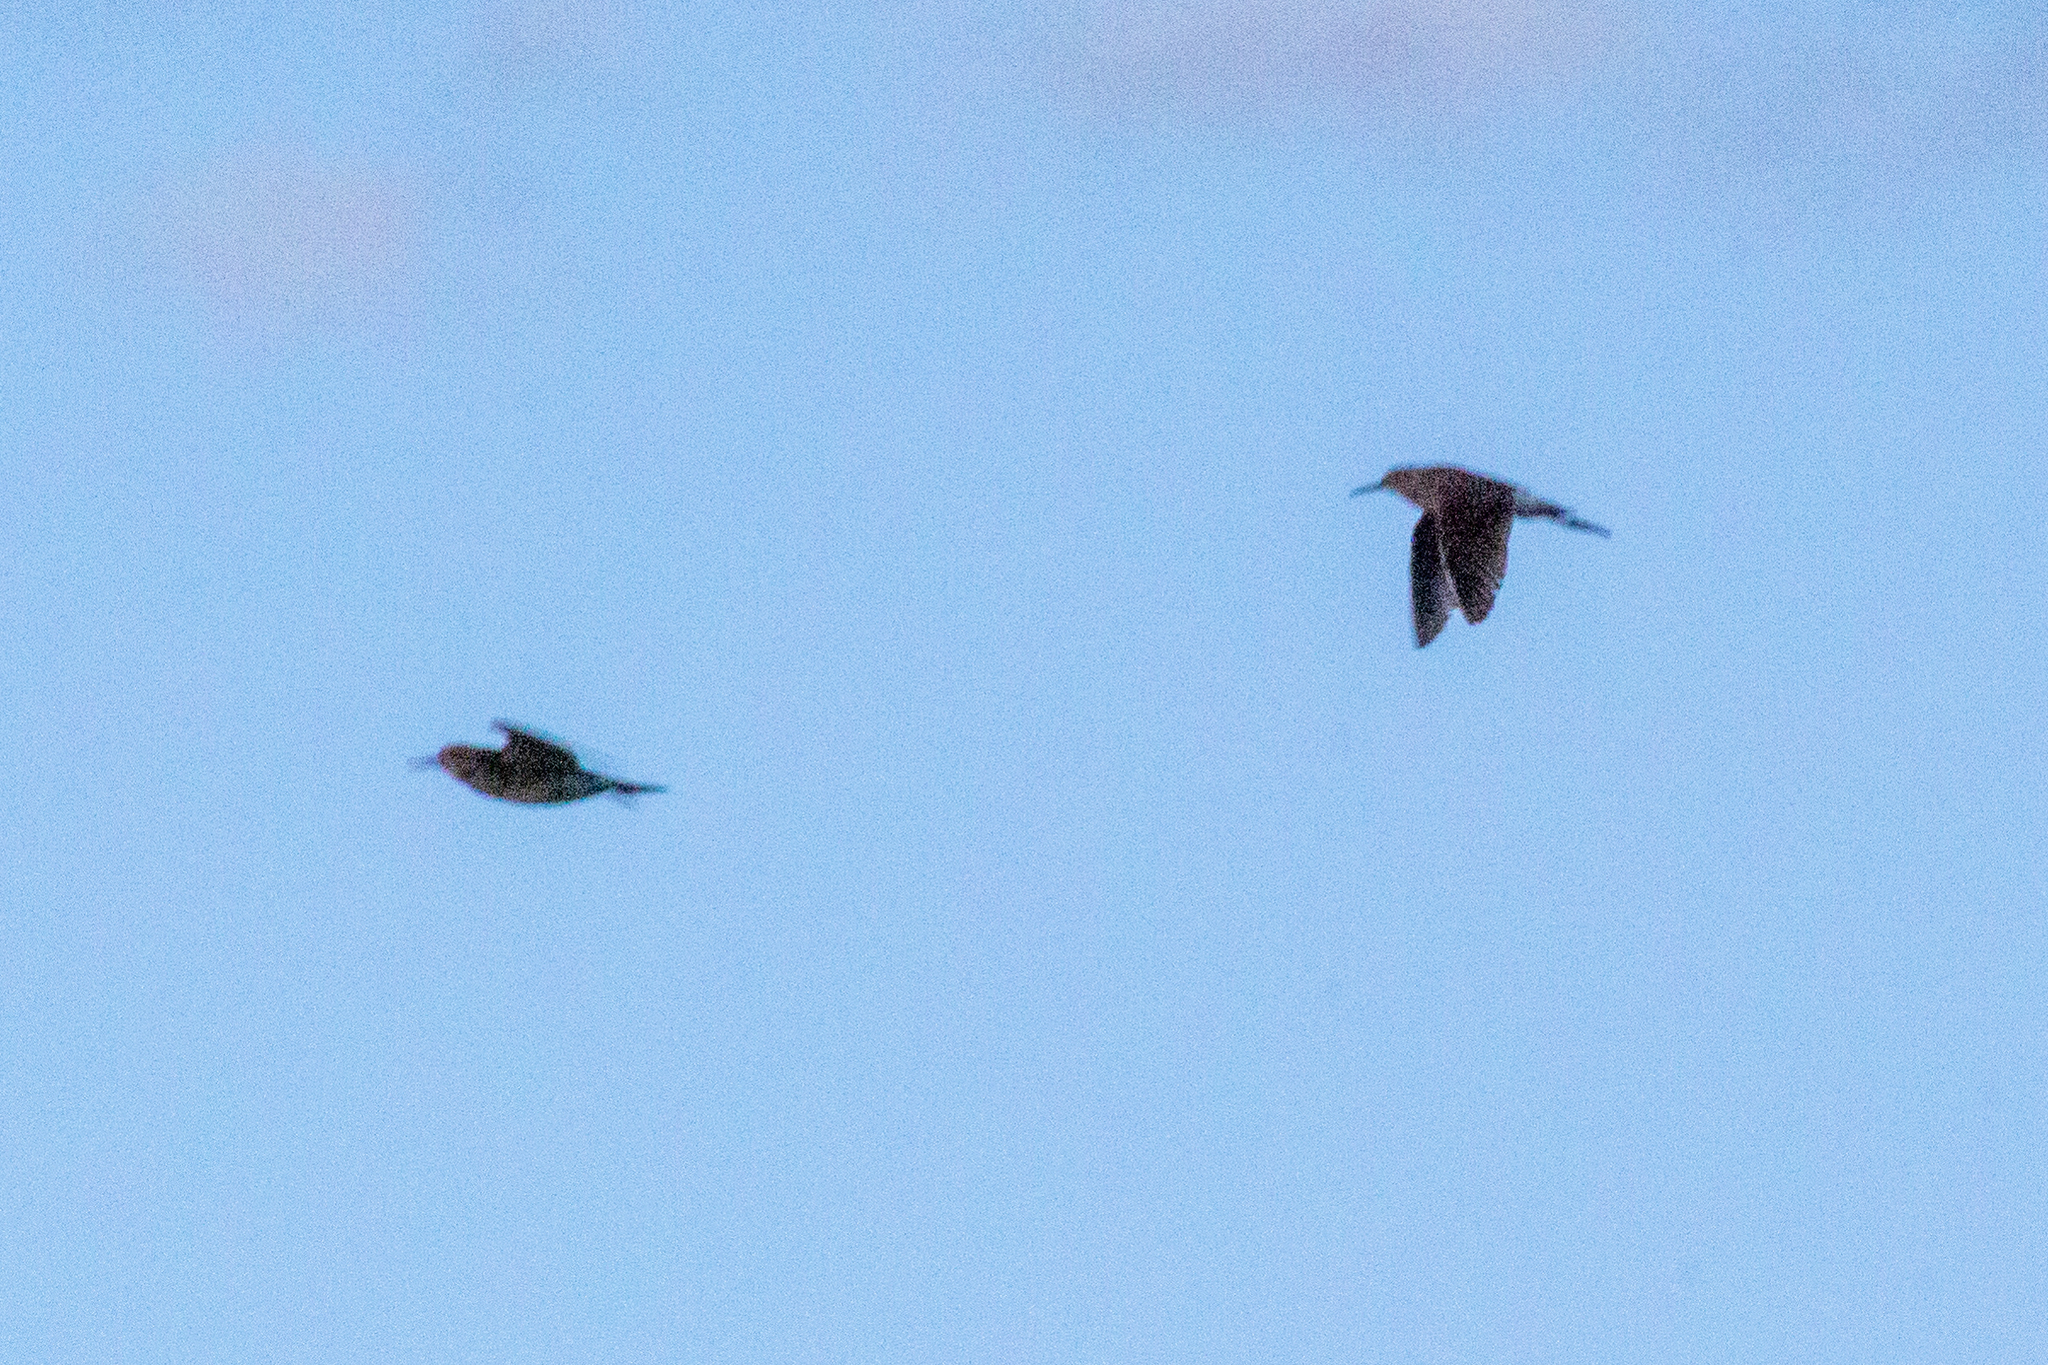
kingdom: Animalia
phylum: Chordata
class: Aves
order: Charadriiformes
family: Scolopacidae
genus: Calidris
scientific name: Calidris pugnax
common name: Ruff
